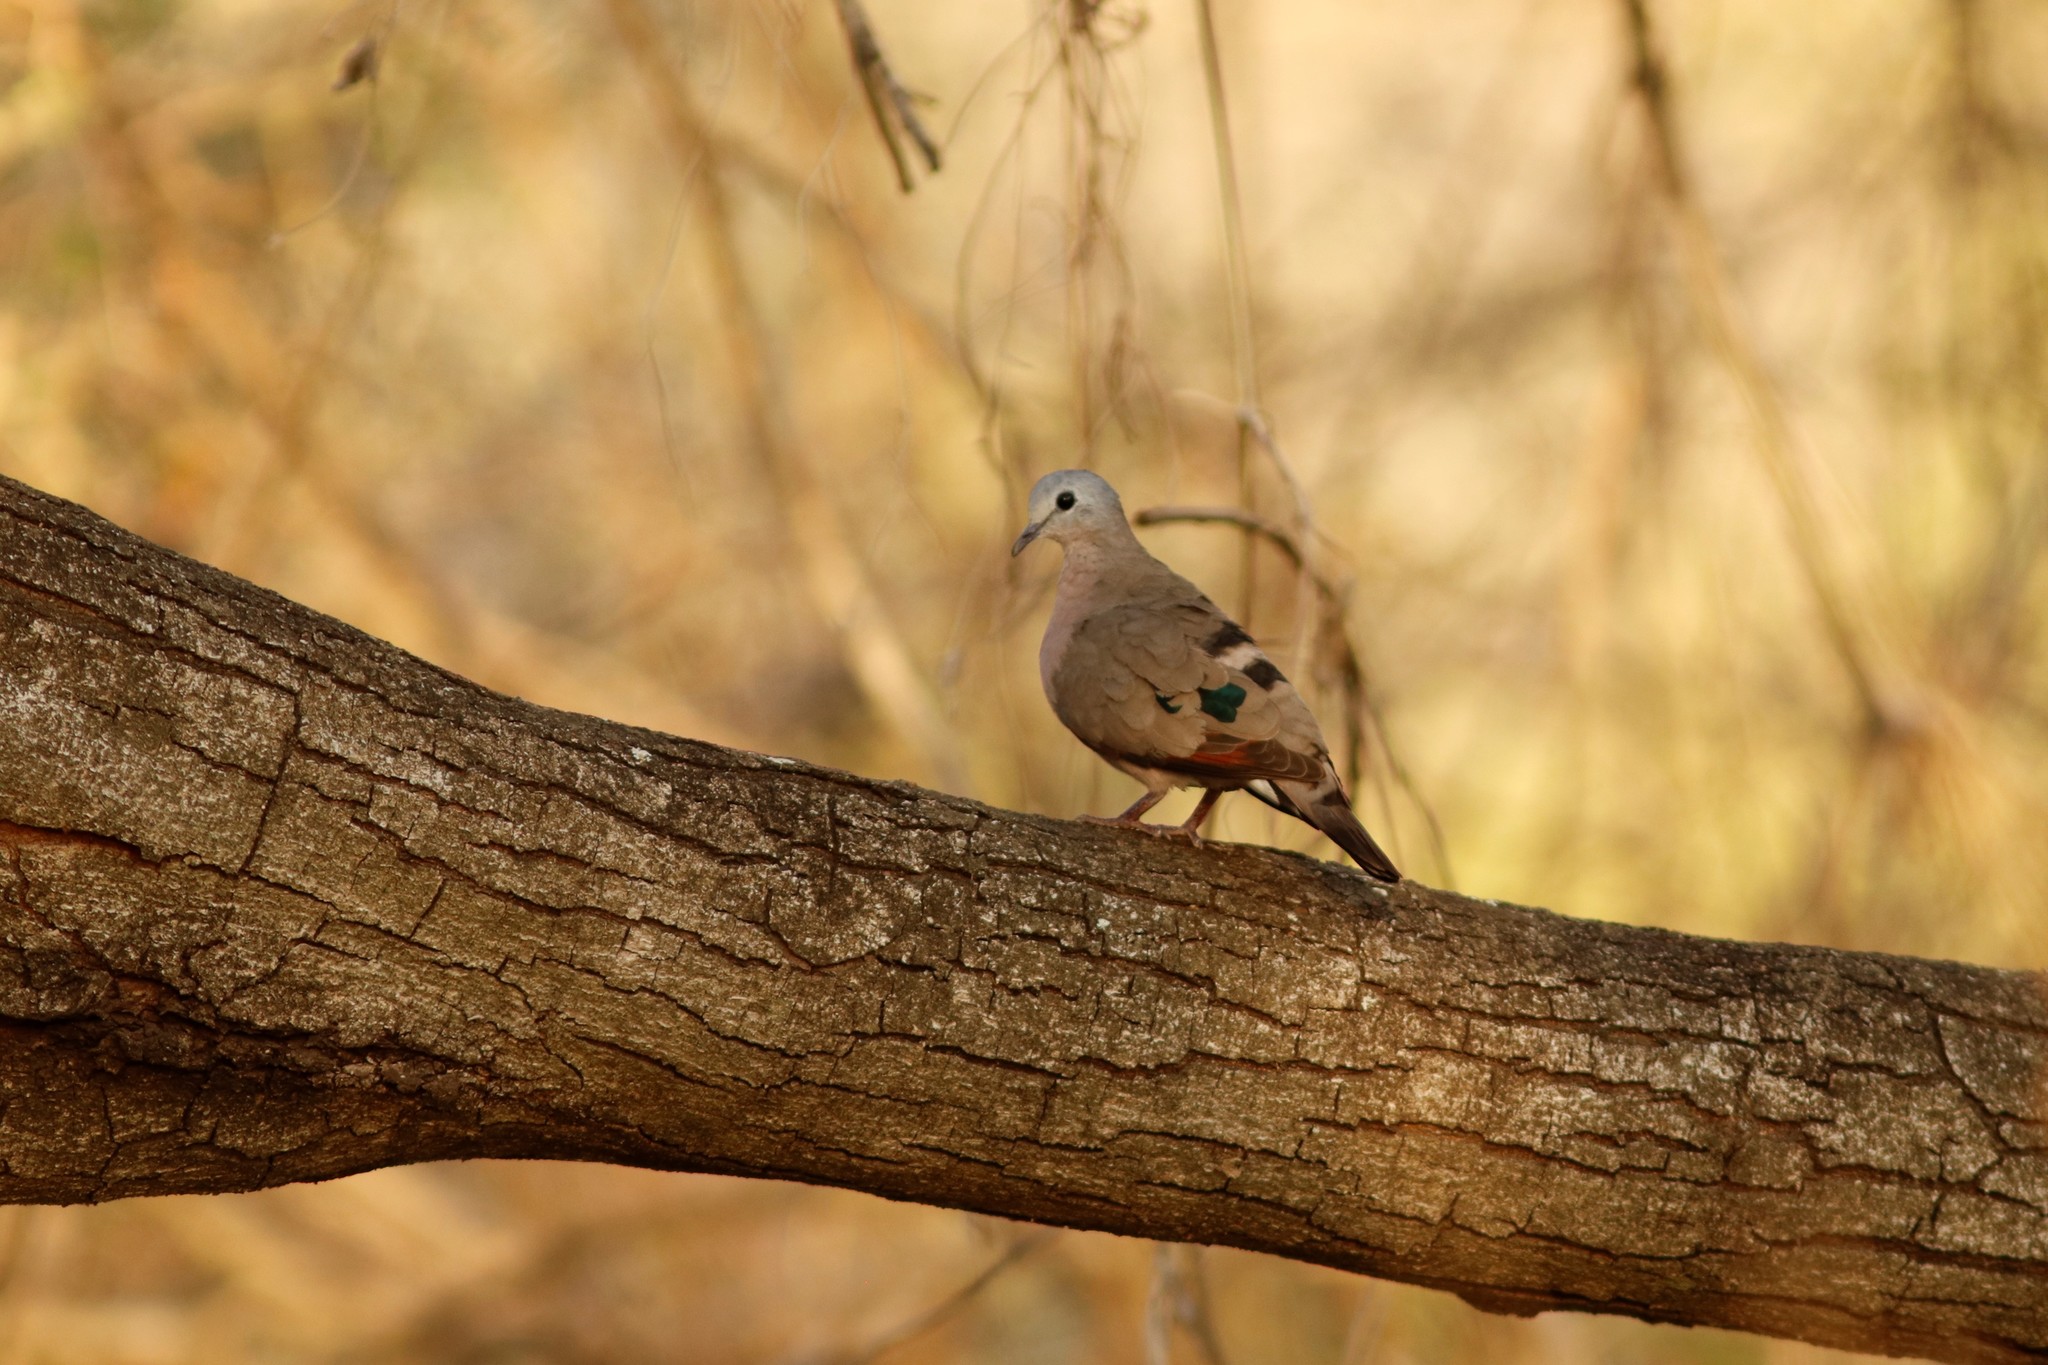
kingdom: Animalia
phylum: Chordata
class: Aves
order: Columbiformes
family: Columbidae
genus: Turtur
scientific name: Turtur chalcospilos
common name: Emerald-spotted wood dove
